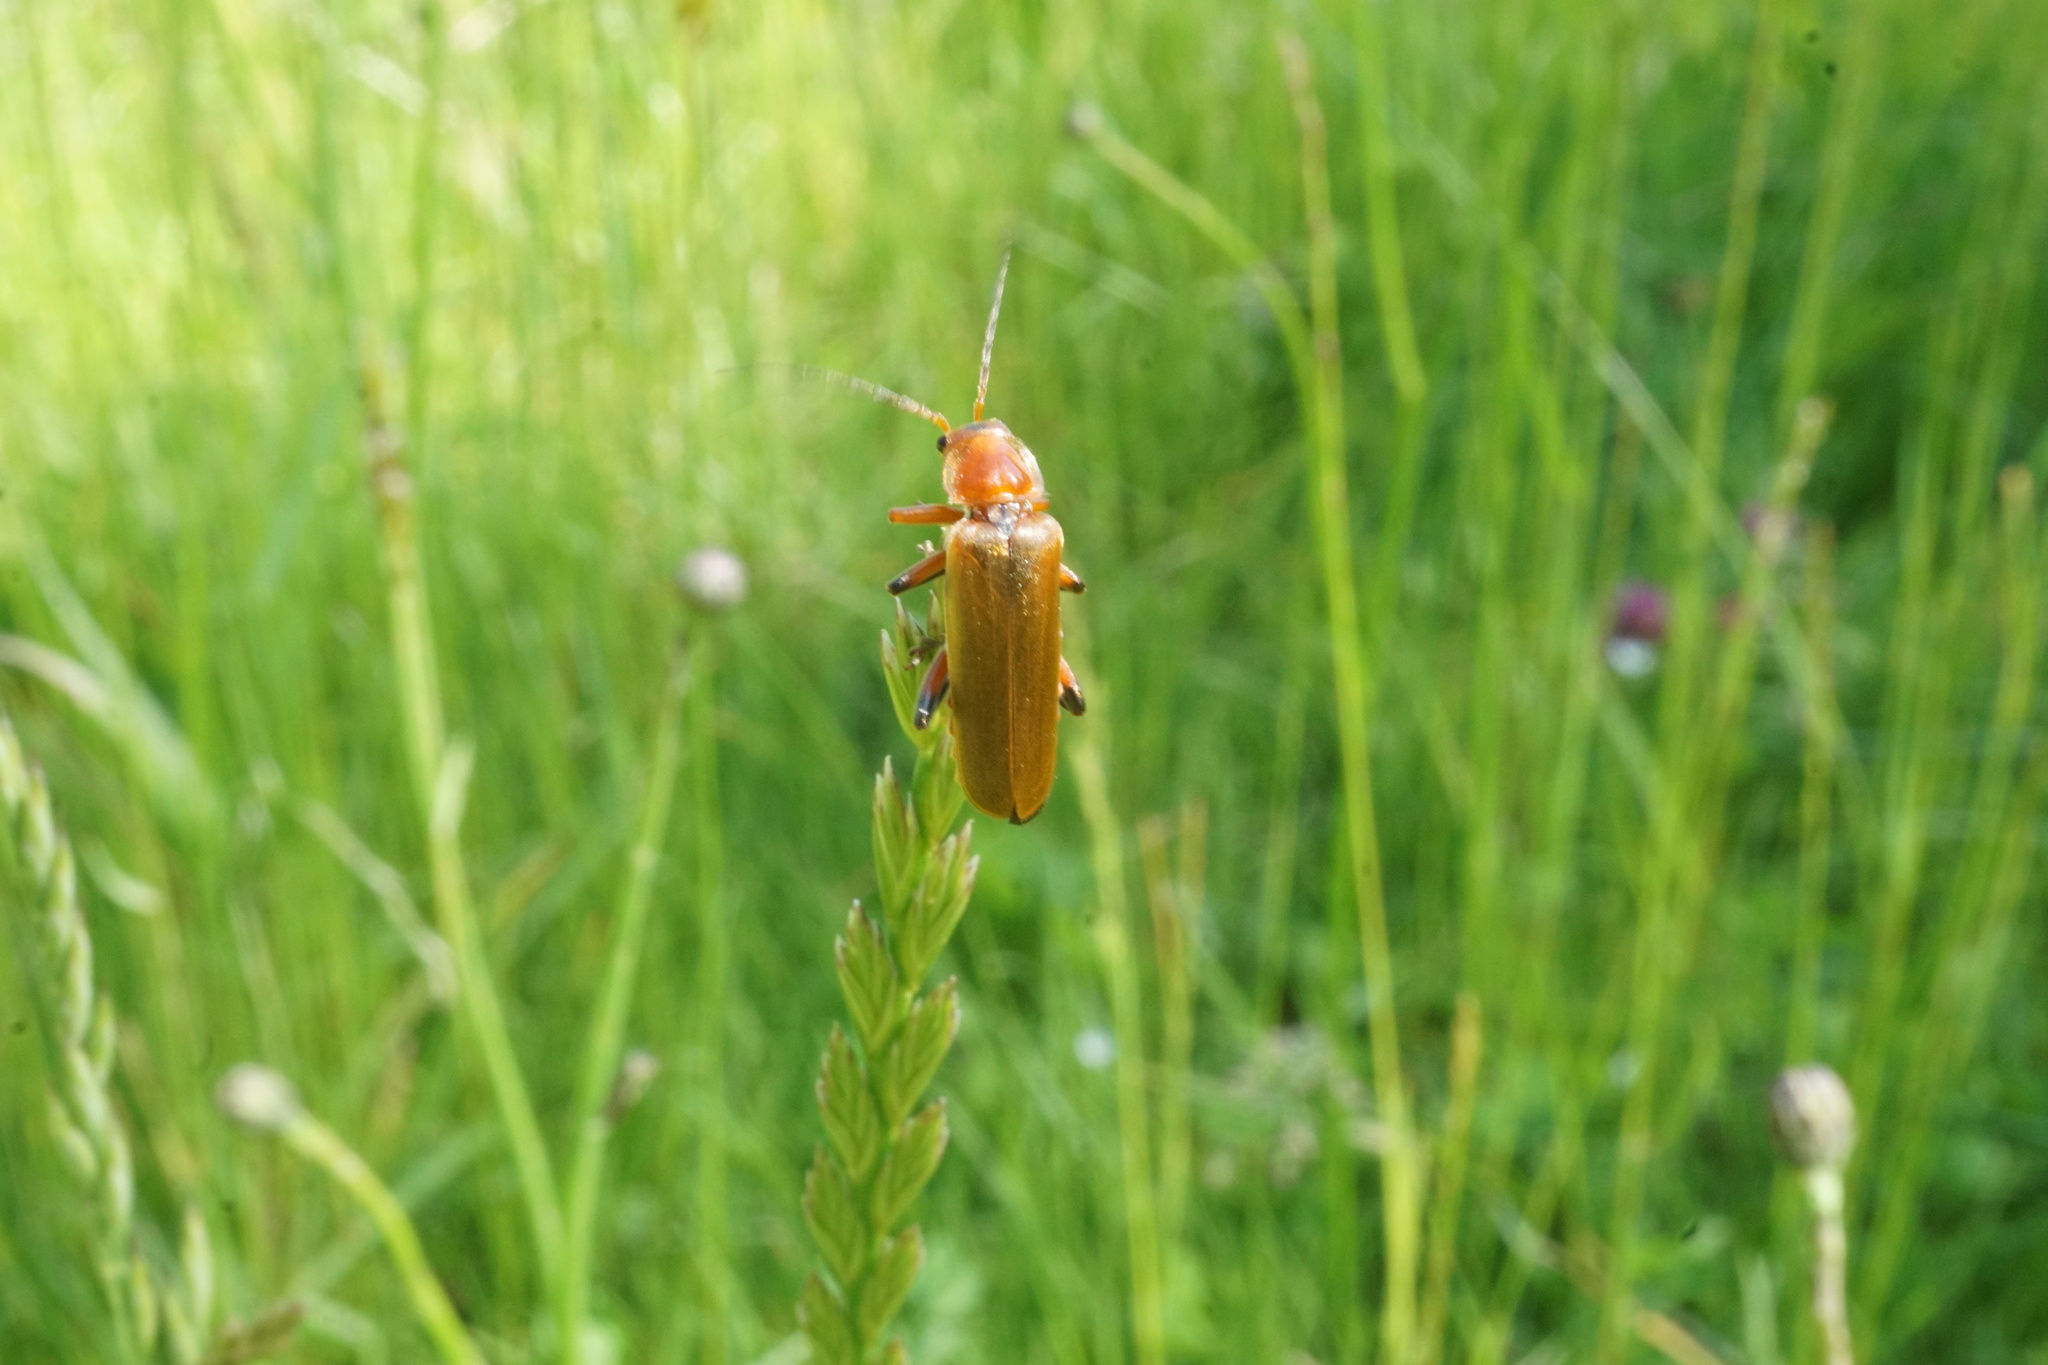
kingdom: Animalia
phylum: Arthropoda
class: Insecta
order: Coleoptera
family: Cantharidae
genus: Cantharis
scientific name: Cantharis livida
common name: Livid soldier beetle
